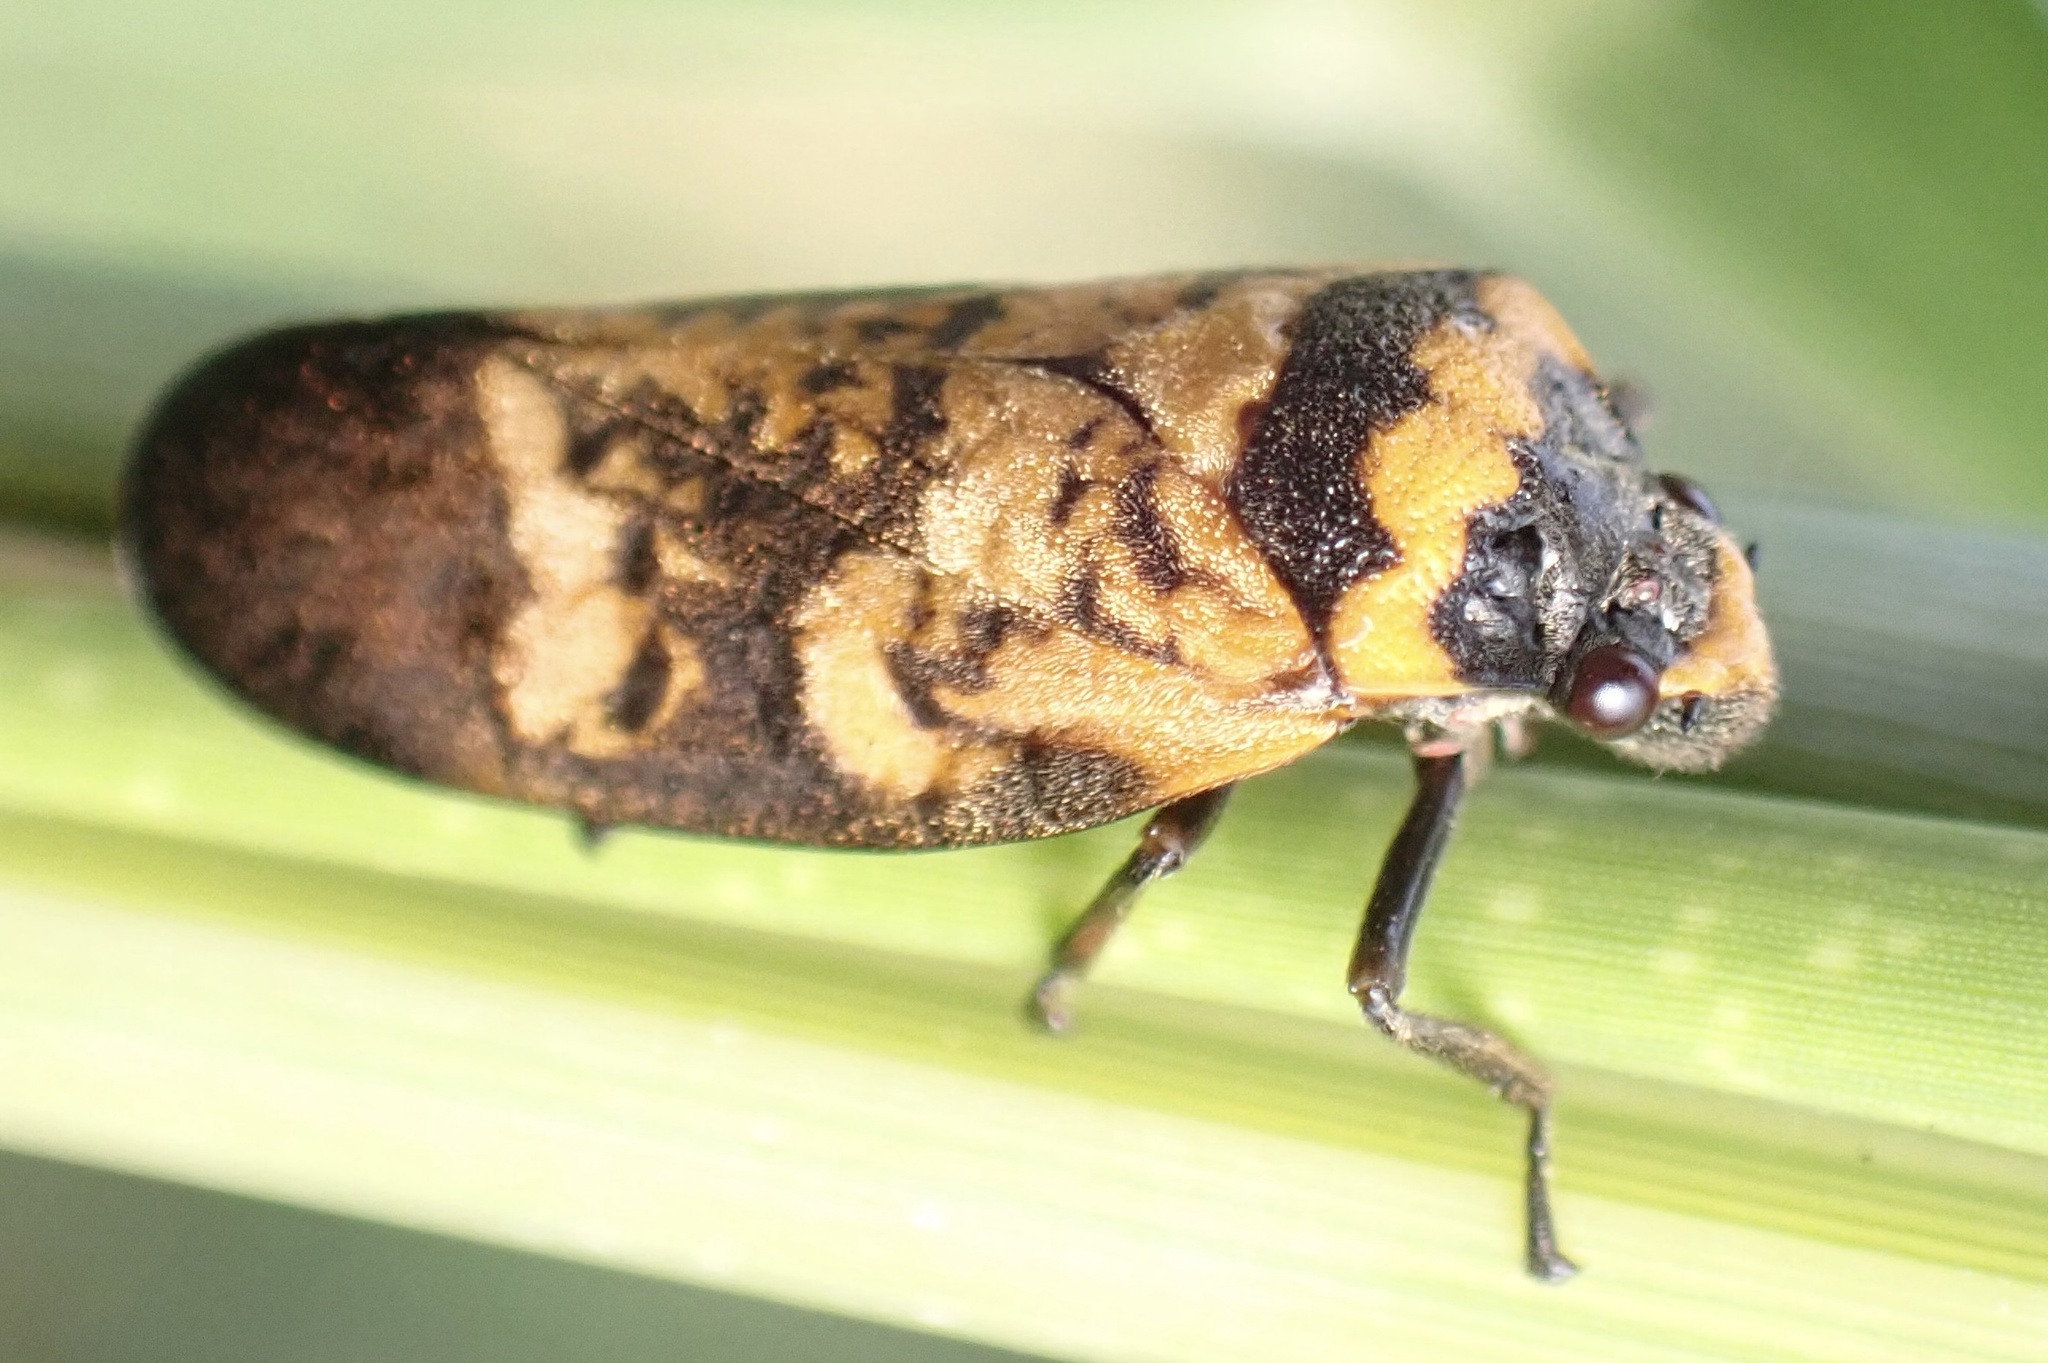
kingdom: Animalia
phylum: Arthropoda
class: Insecta
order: Hemiptera
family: Cercopidae
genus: Locris
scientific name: Locris maculata
